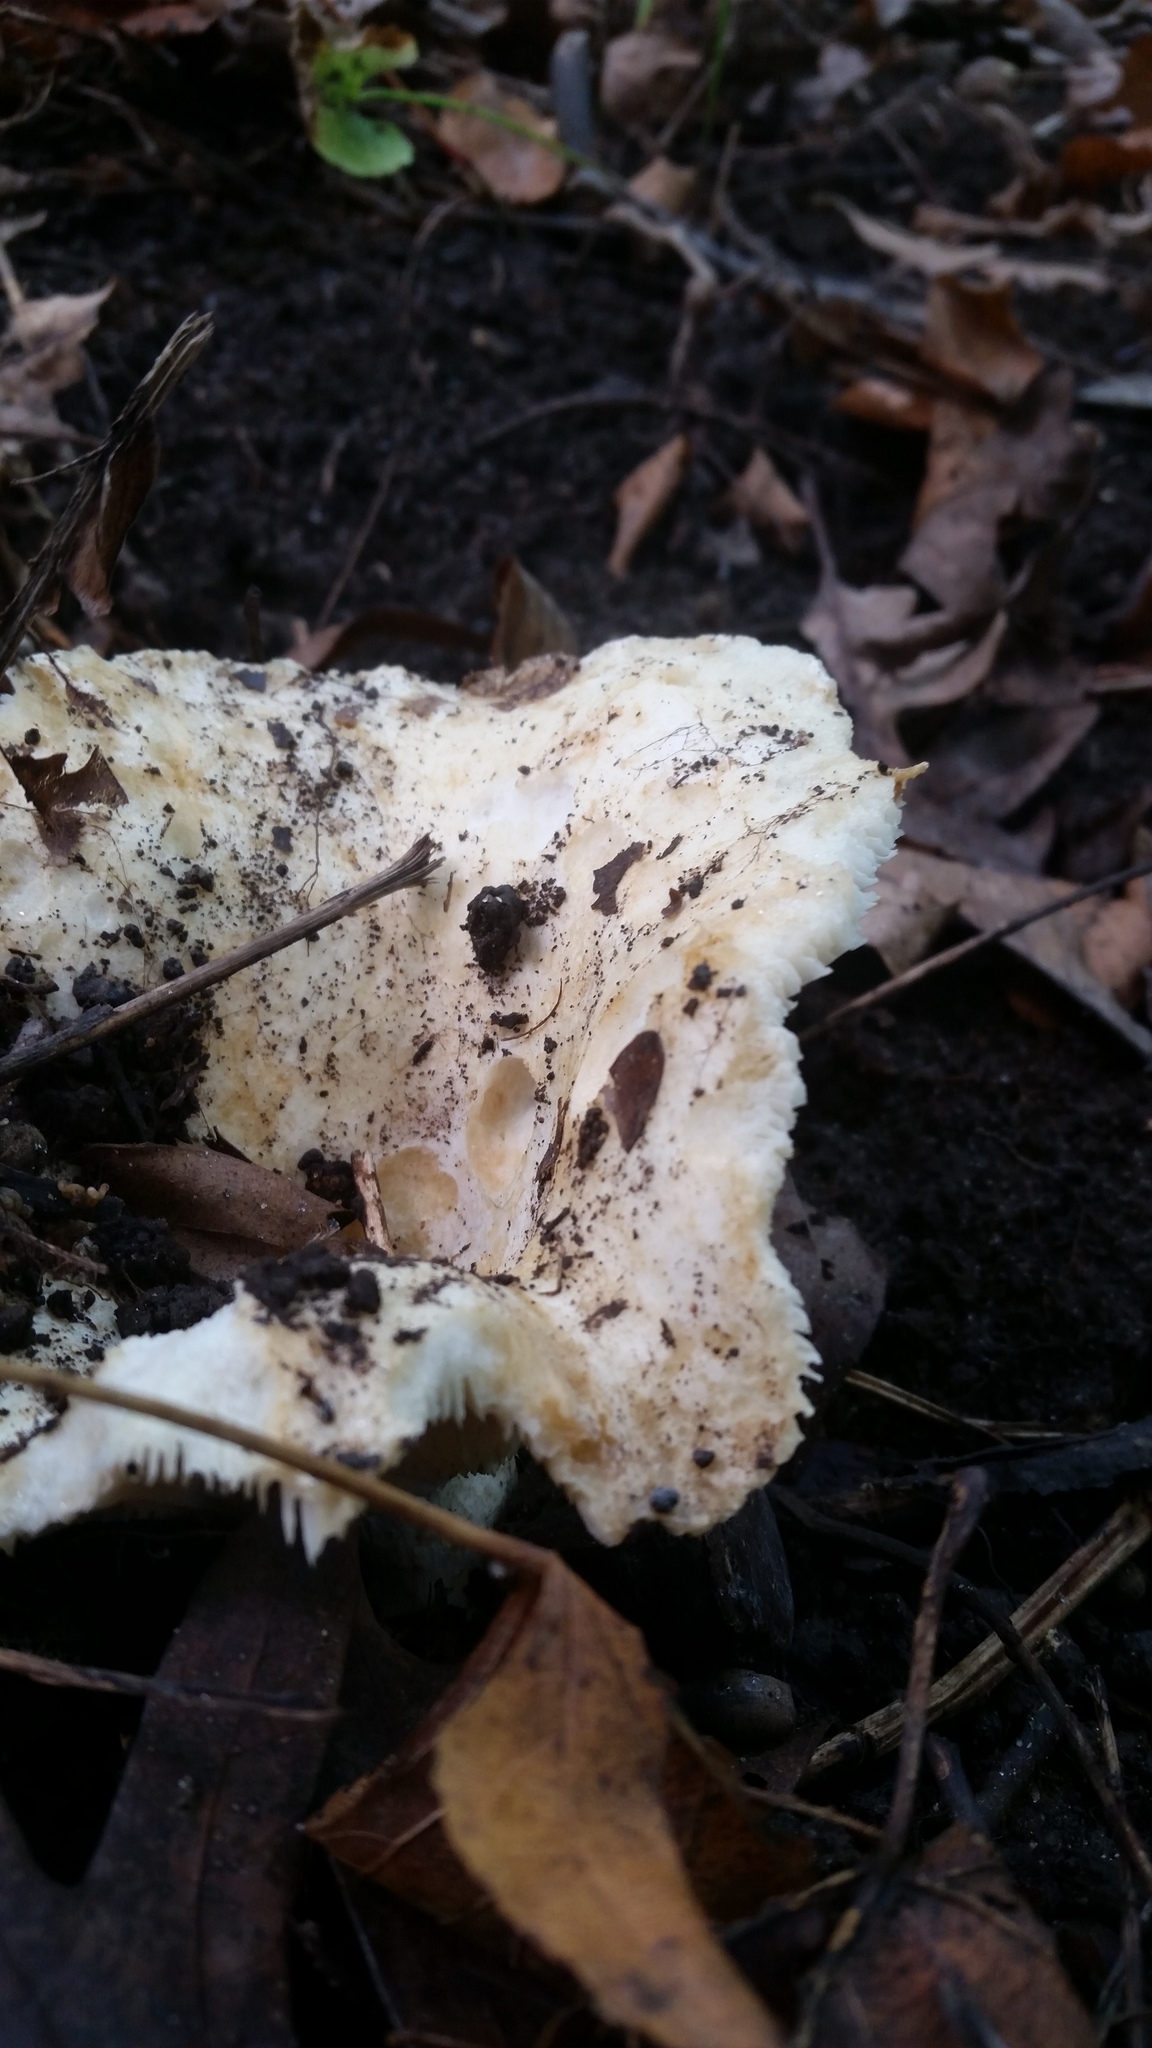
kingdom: Fungi
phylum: Ascomycota
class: Sordariomycetes
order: Hypocreales
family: Hypocreaceae
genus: Hypomyces
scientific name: Hypomyces lactifluorum
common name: Lobster mushroom
